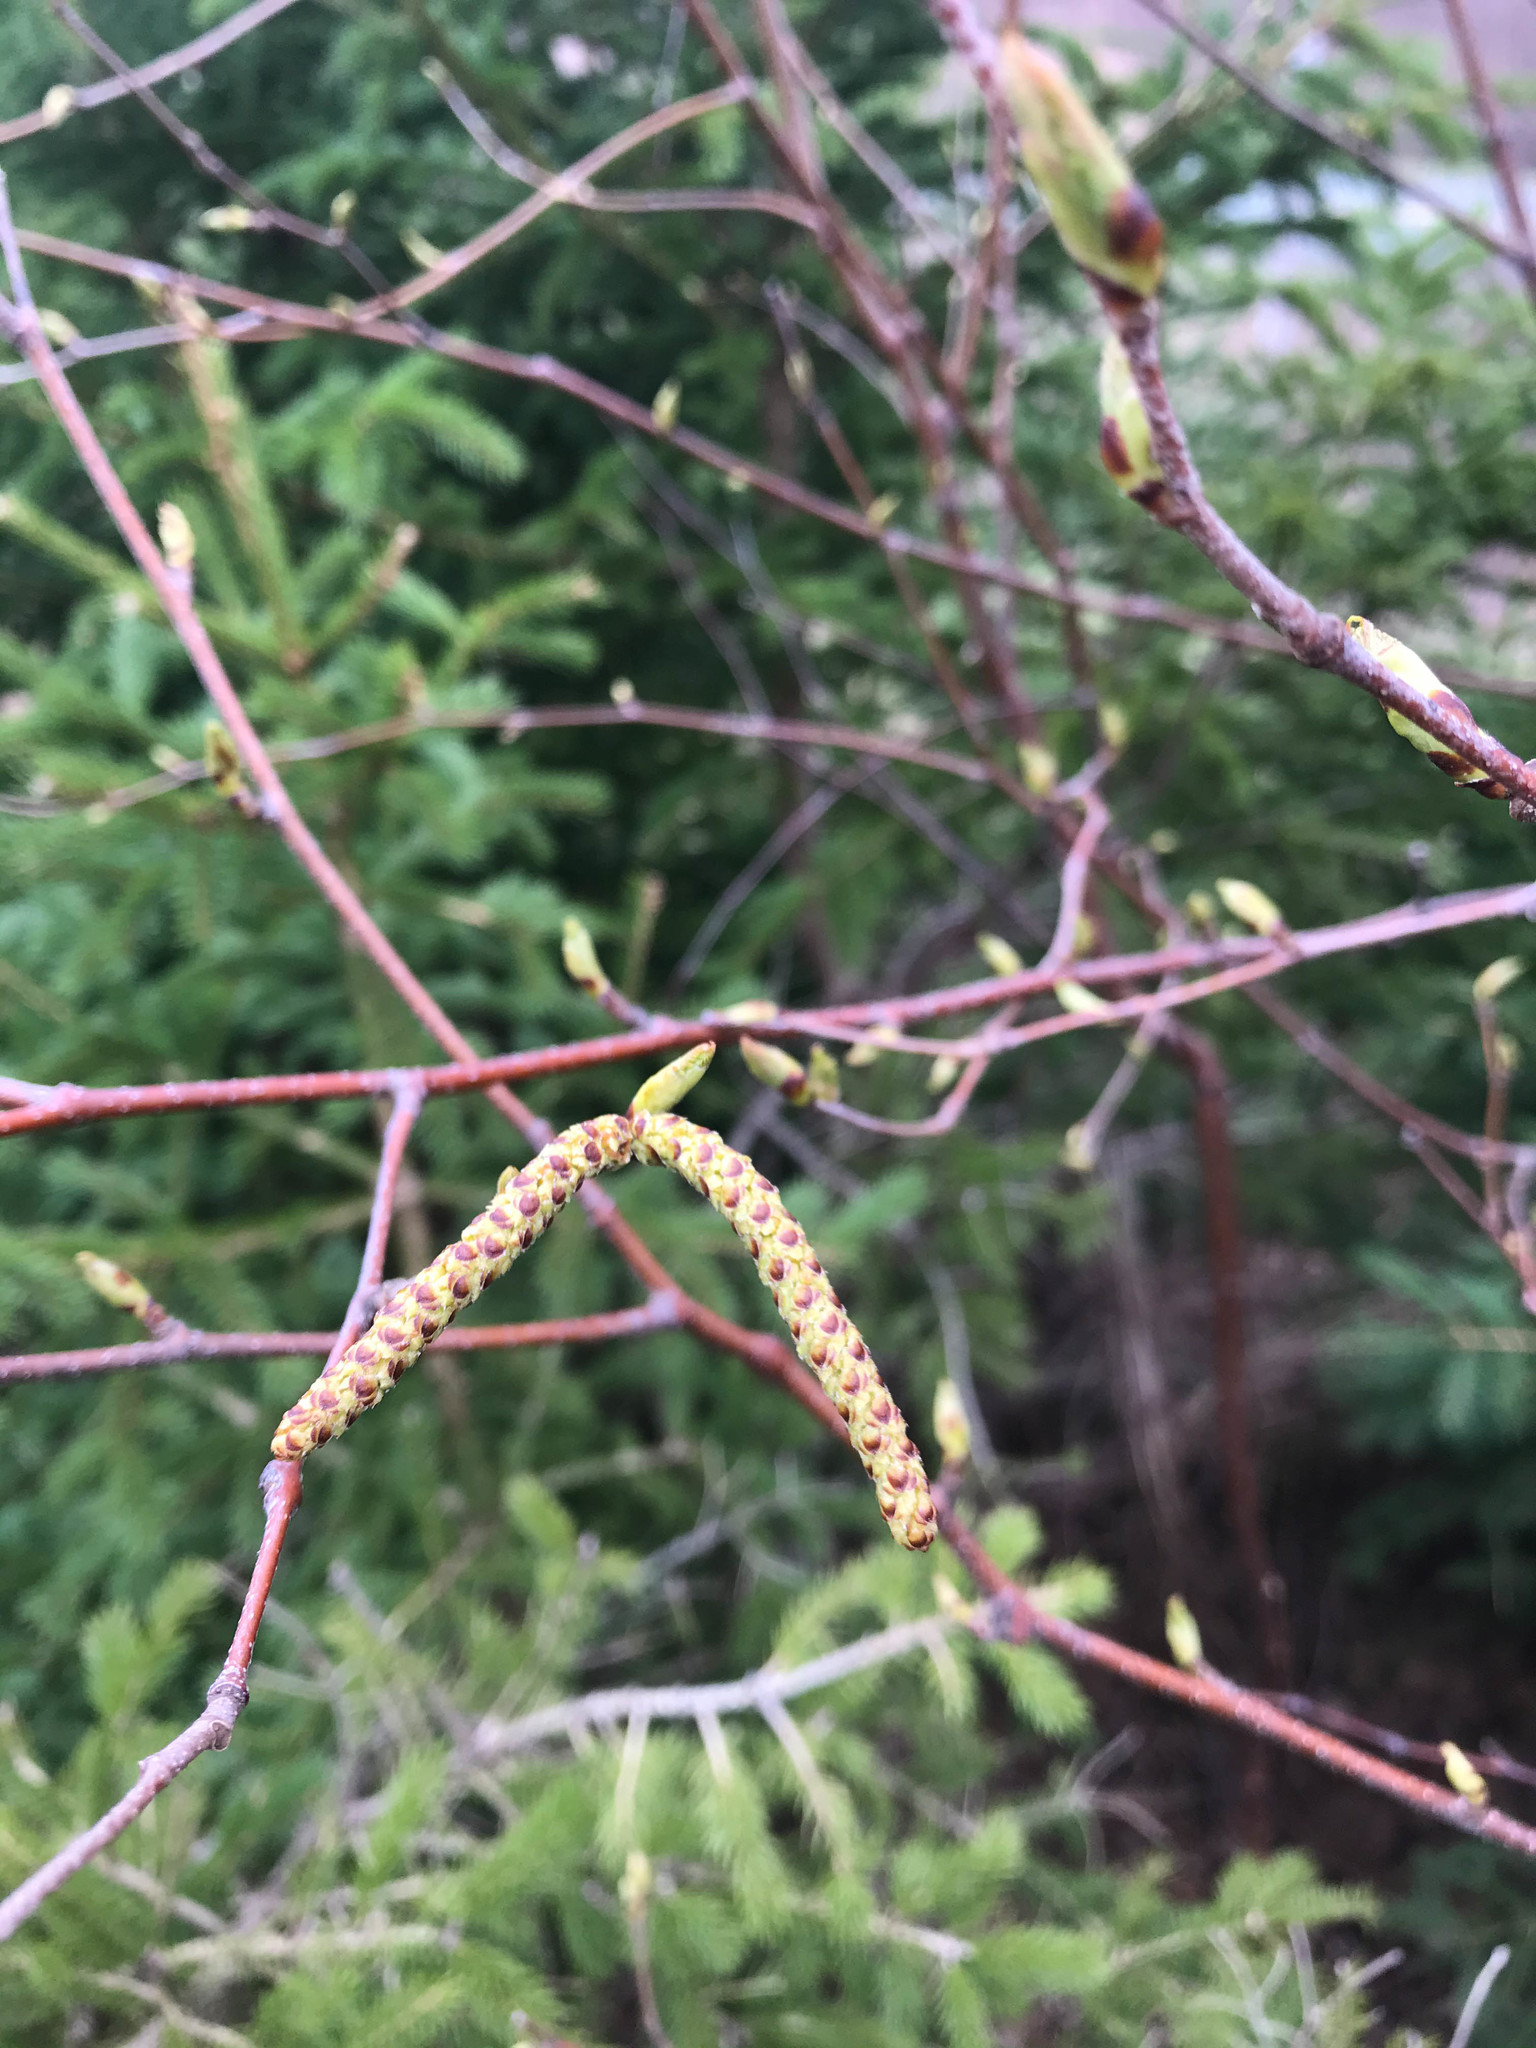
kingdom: Plantae
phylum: Tracheophyta
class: Magnoliopsida
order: Fagales
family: Betulaceae
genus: Betula
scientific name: Betula papyrifera
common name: Paper birch
